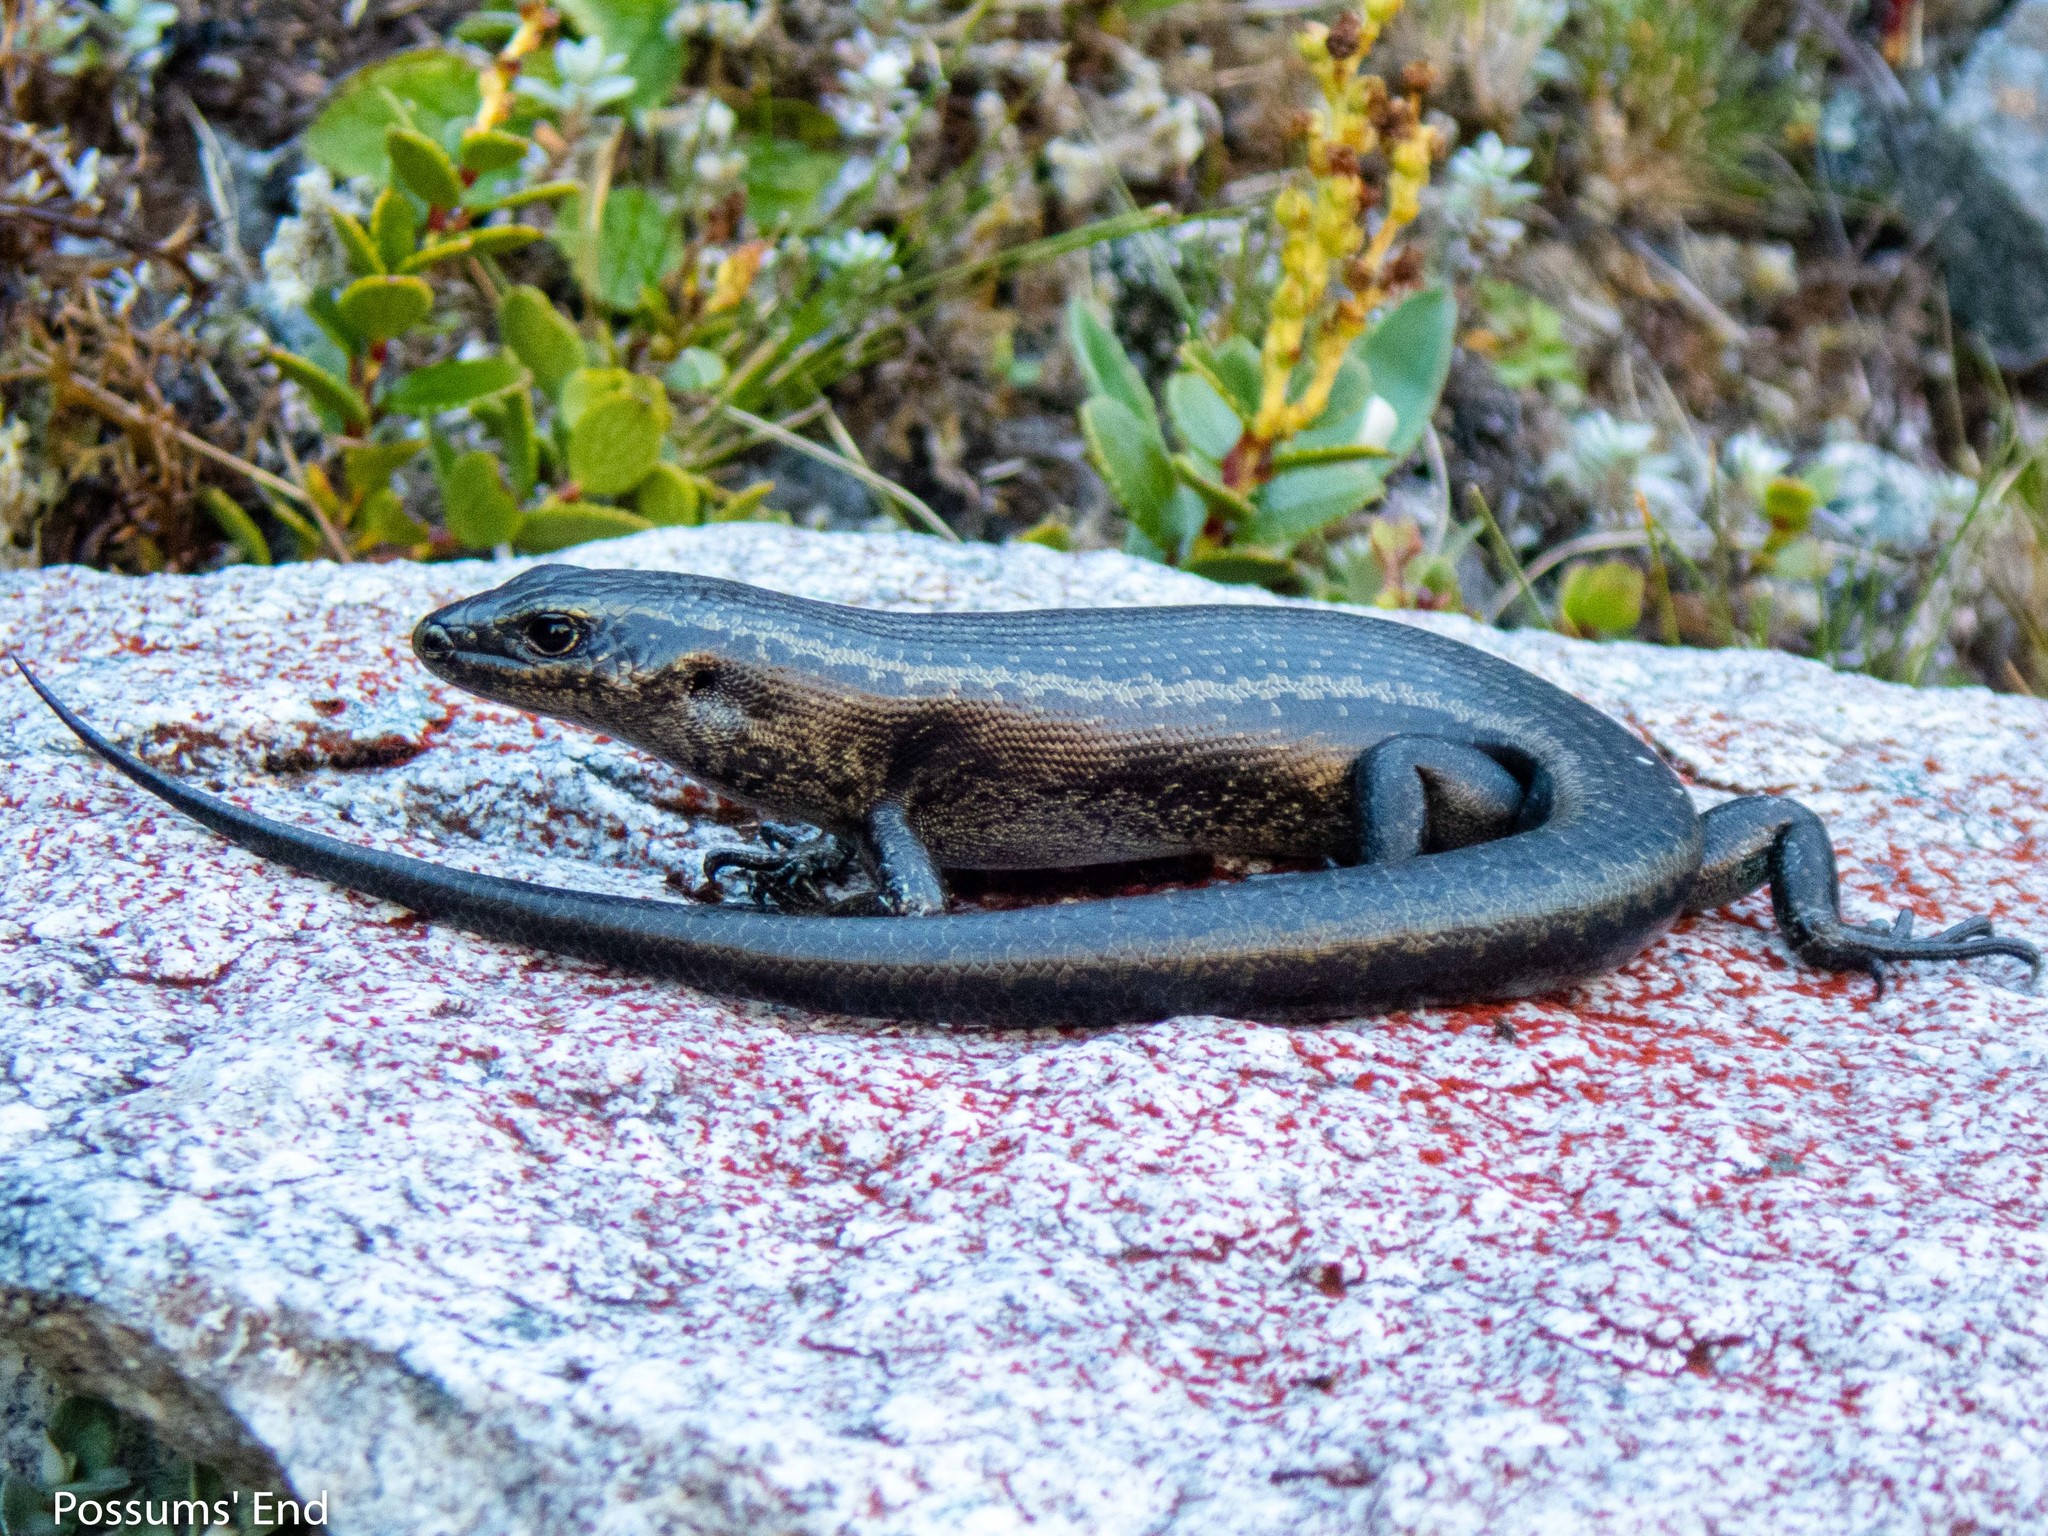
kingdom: Animalia
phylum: Chordata
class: Squamata
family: Scincidae
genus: Oligosoma
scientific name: Oligosoma judgei
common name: Barrier skink
